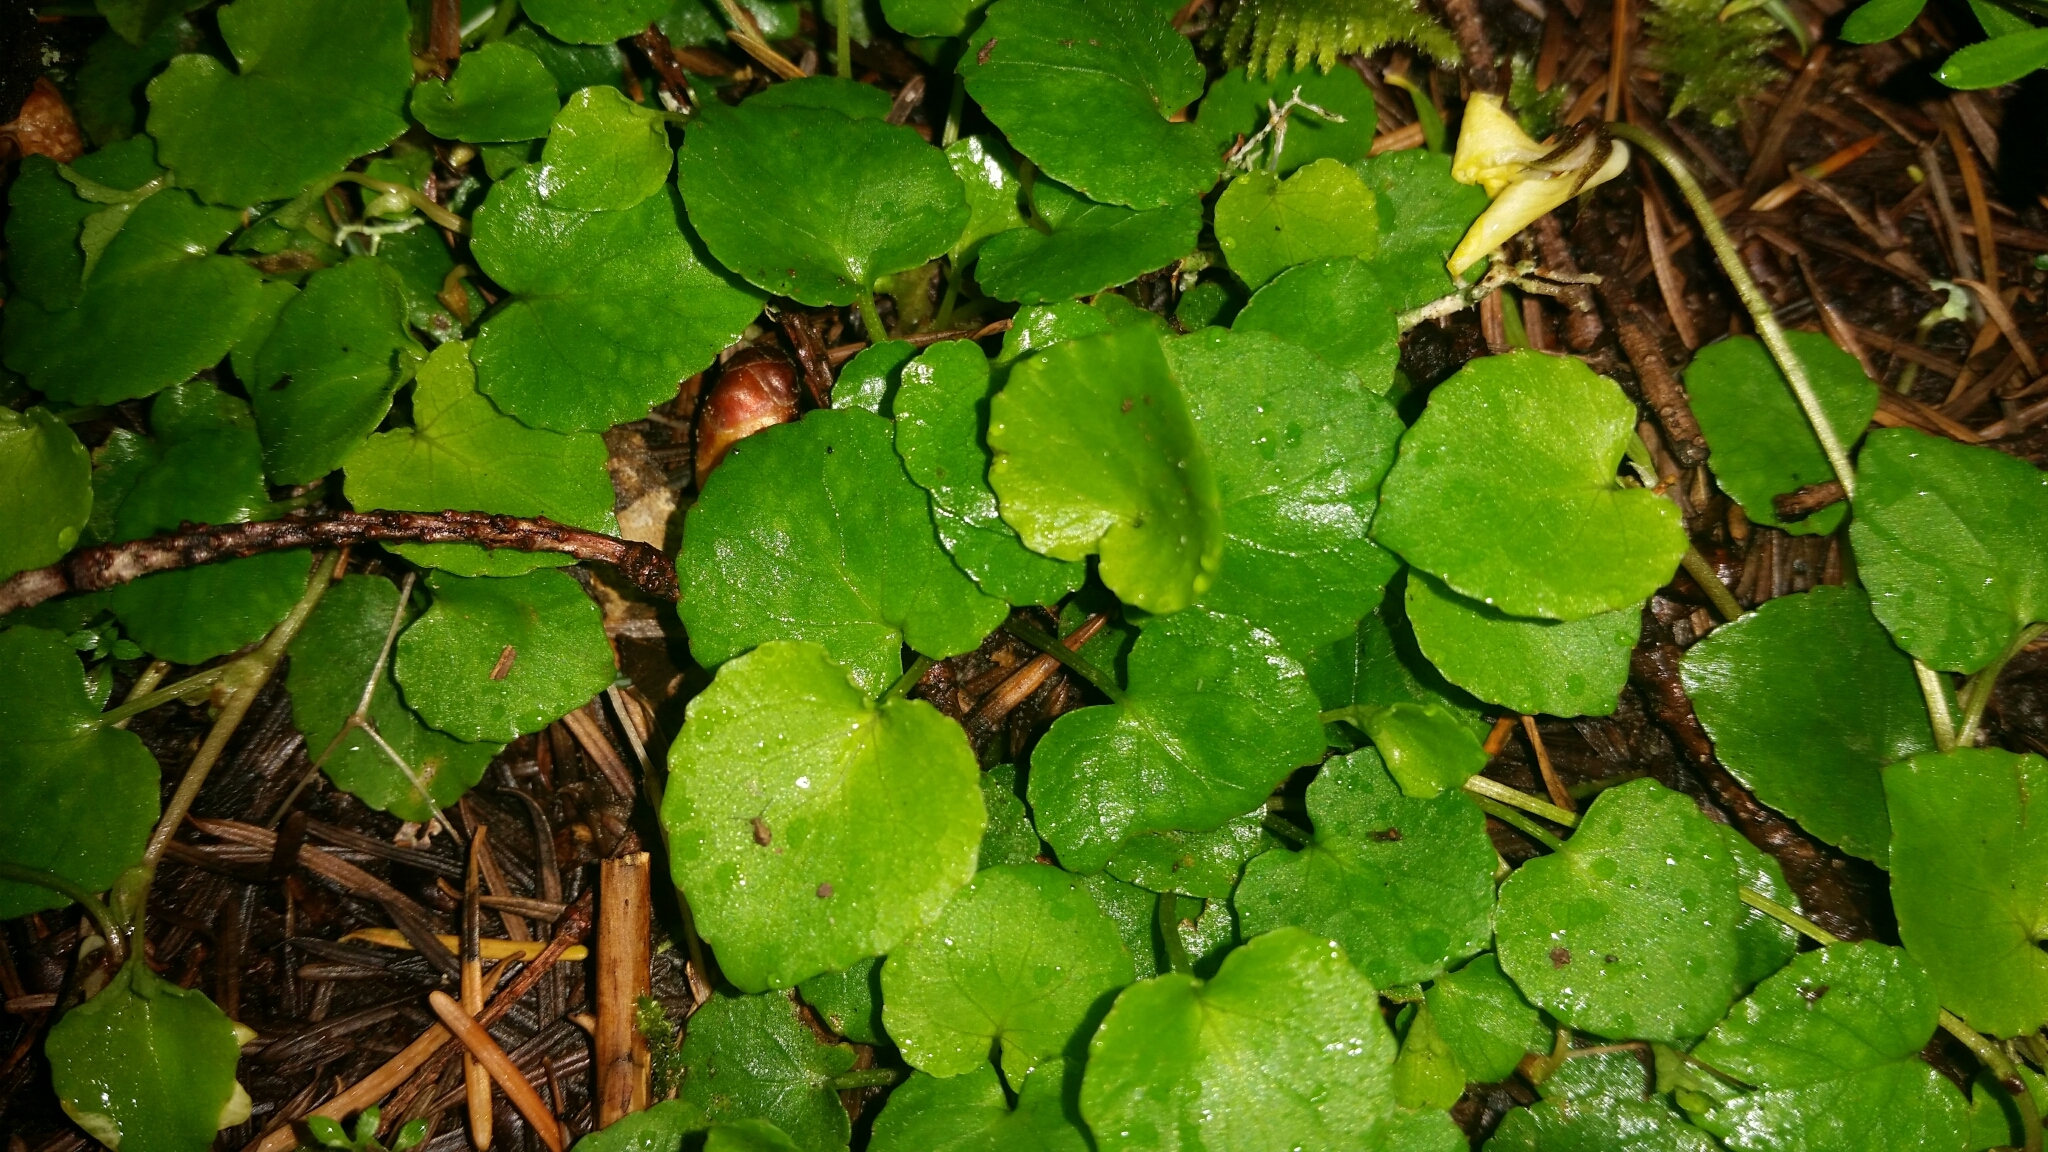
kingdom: Plantae
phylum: Tracheophyta
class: Magnoliopsida
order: Malpighiales
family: Violaceae
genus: Viola
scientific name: Viola sempervirens
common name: Evergreen violet
